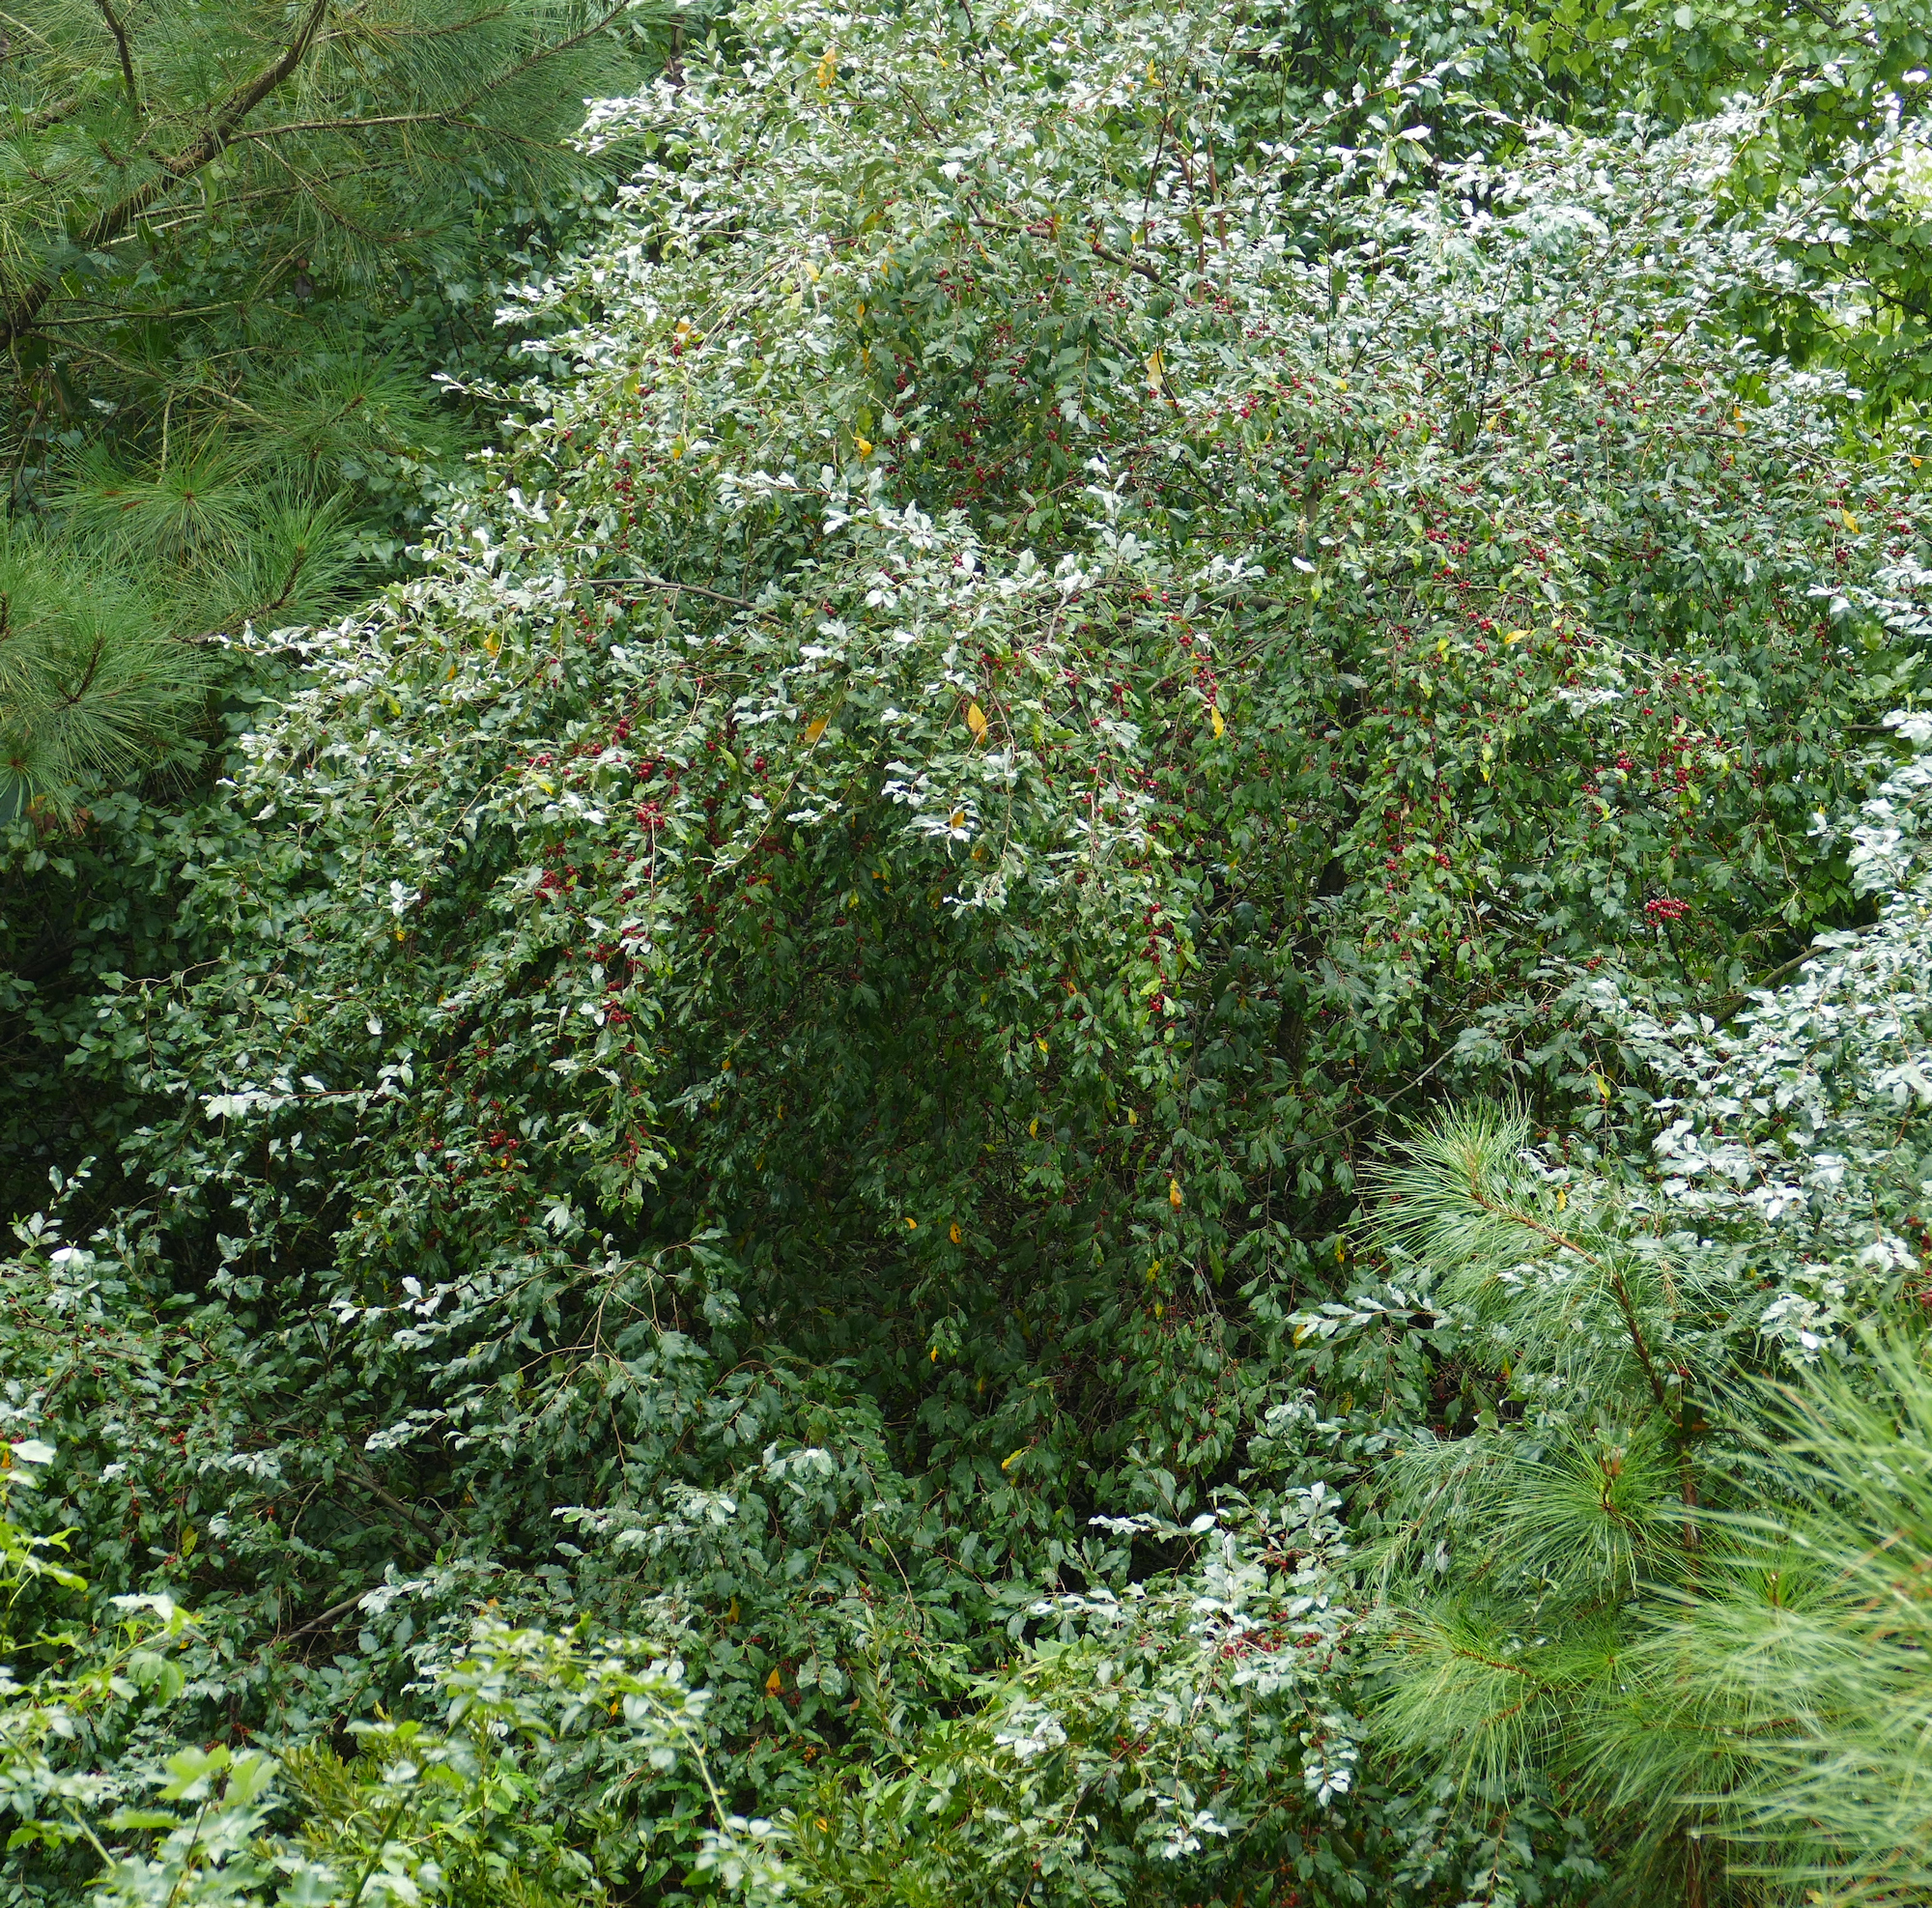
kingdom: Plantae
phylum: Tracheophyta
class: Magnoliopsida
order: Rosales
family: Elaeagnaceae
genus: Elaeagnus
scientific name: Elaeagnus umbellata
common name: Autumn olive
